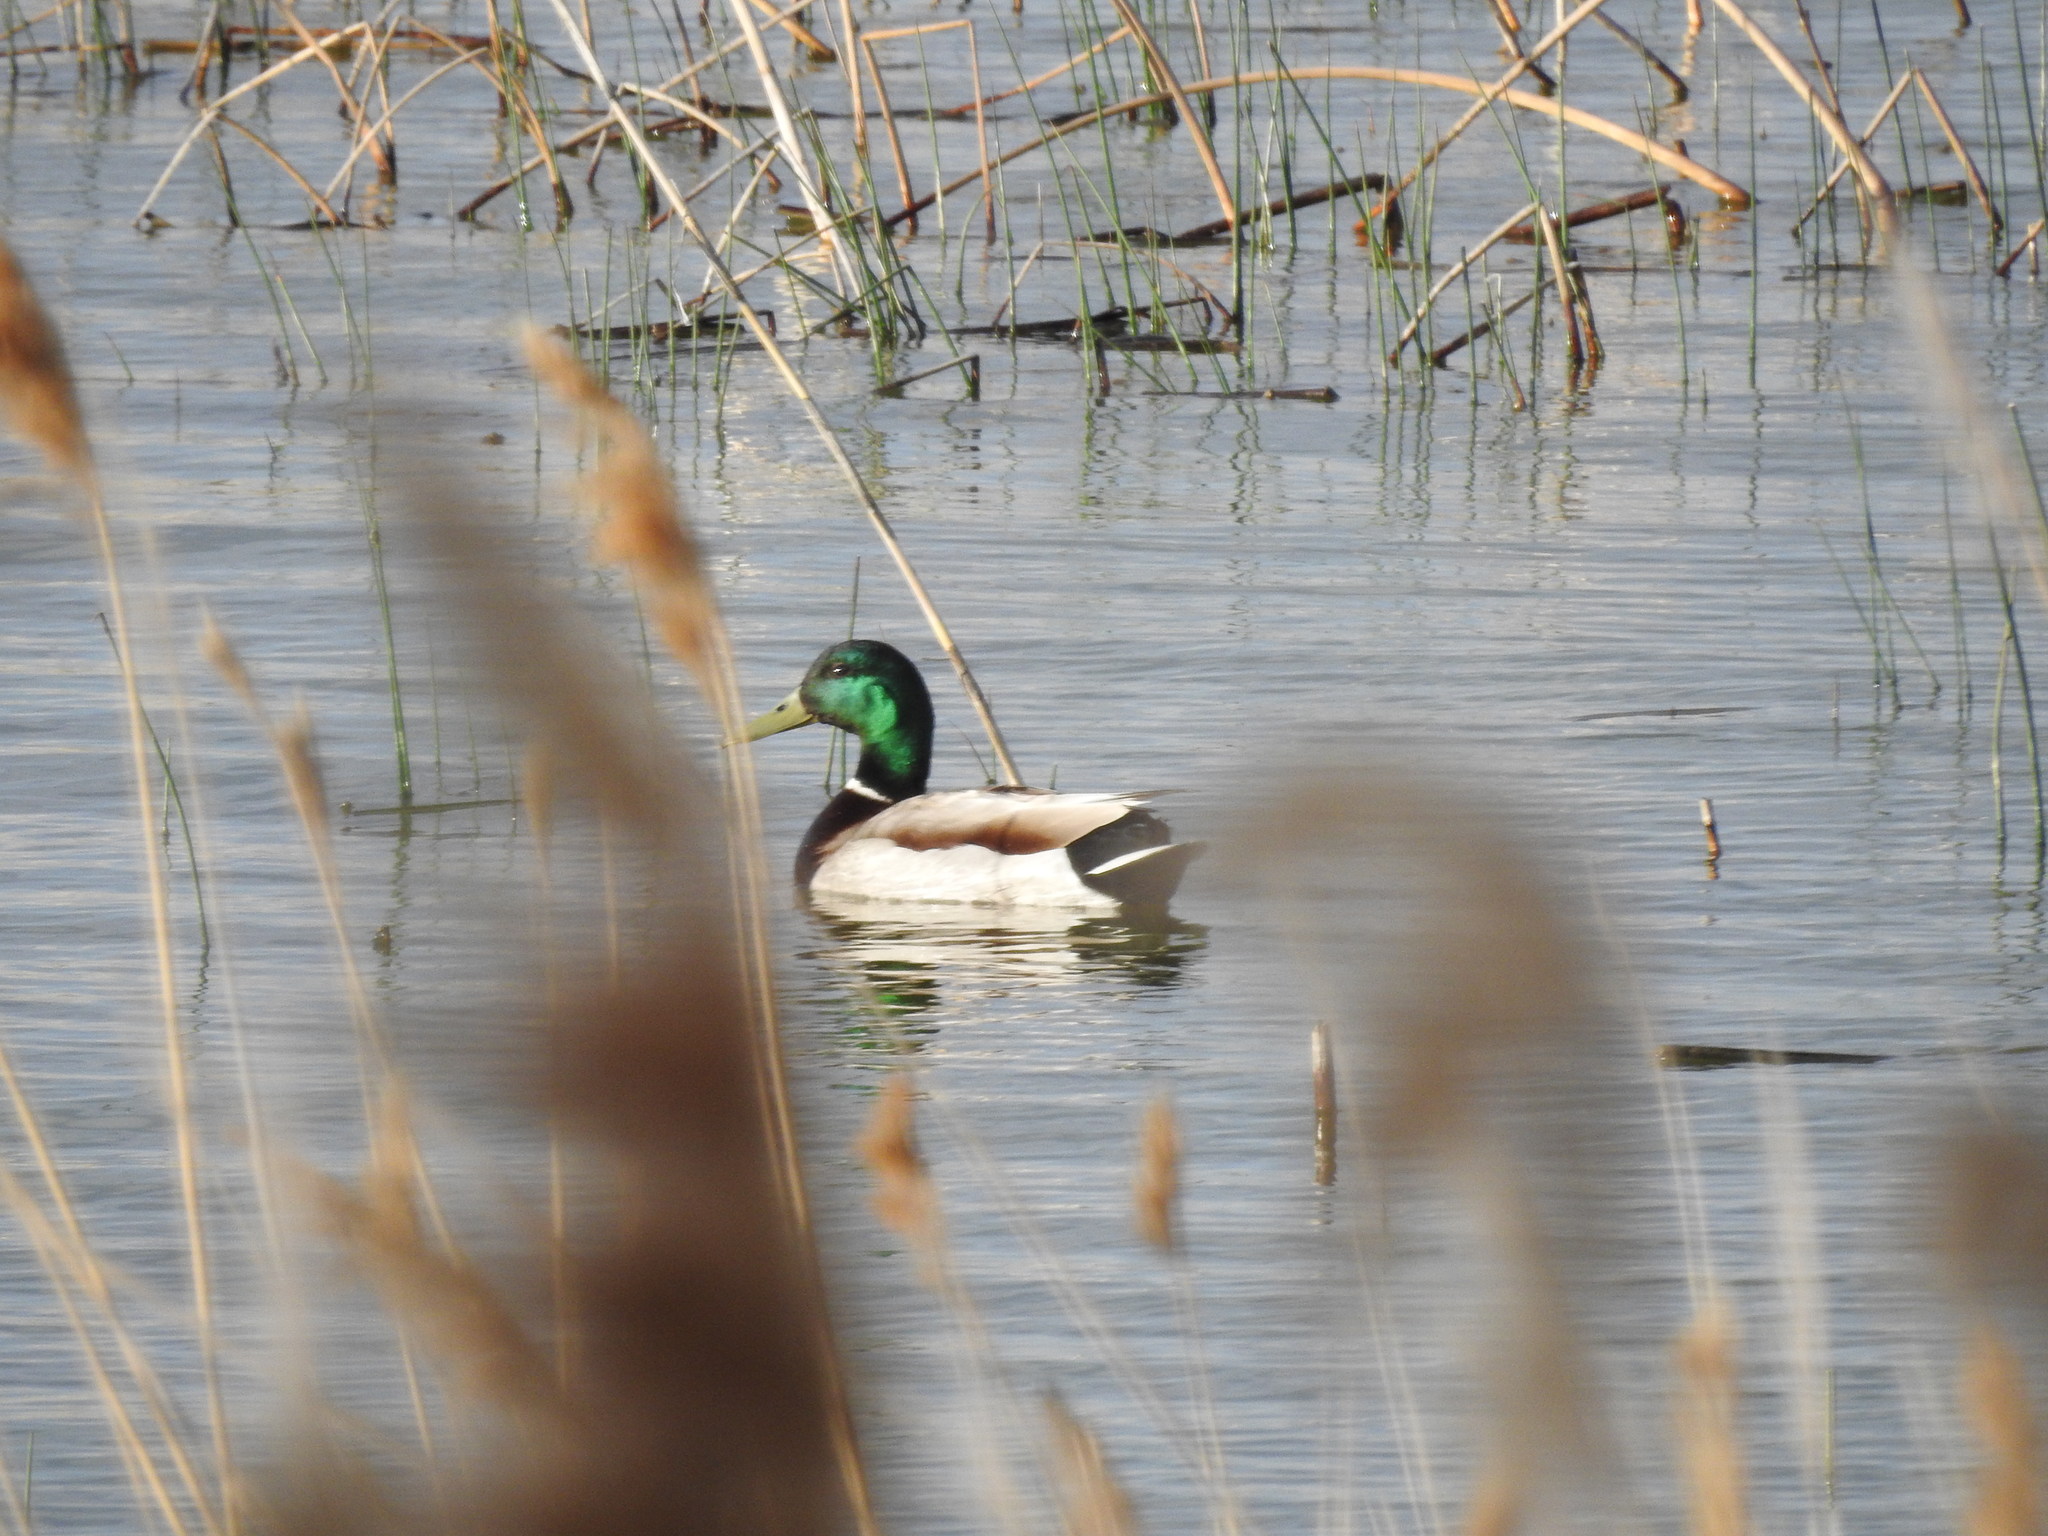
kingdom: Animalia
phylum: Chordata
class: Aves
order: Anseriformes
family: Anatidae
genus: Anas
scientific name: Anas platyrhynchos
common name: Mallard
